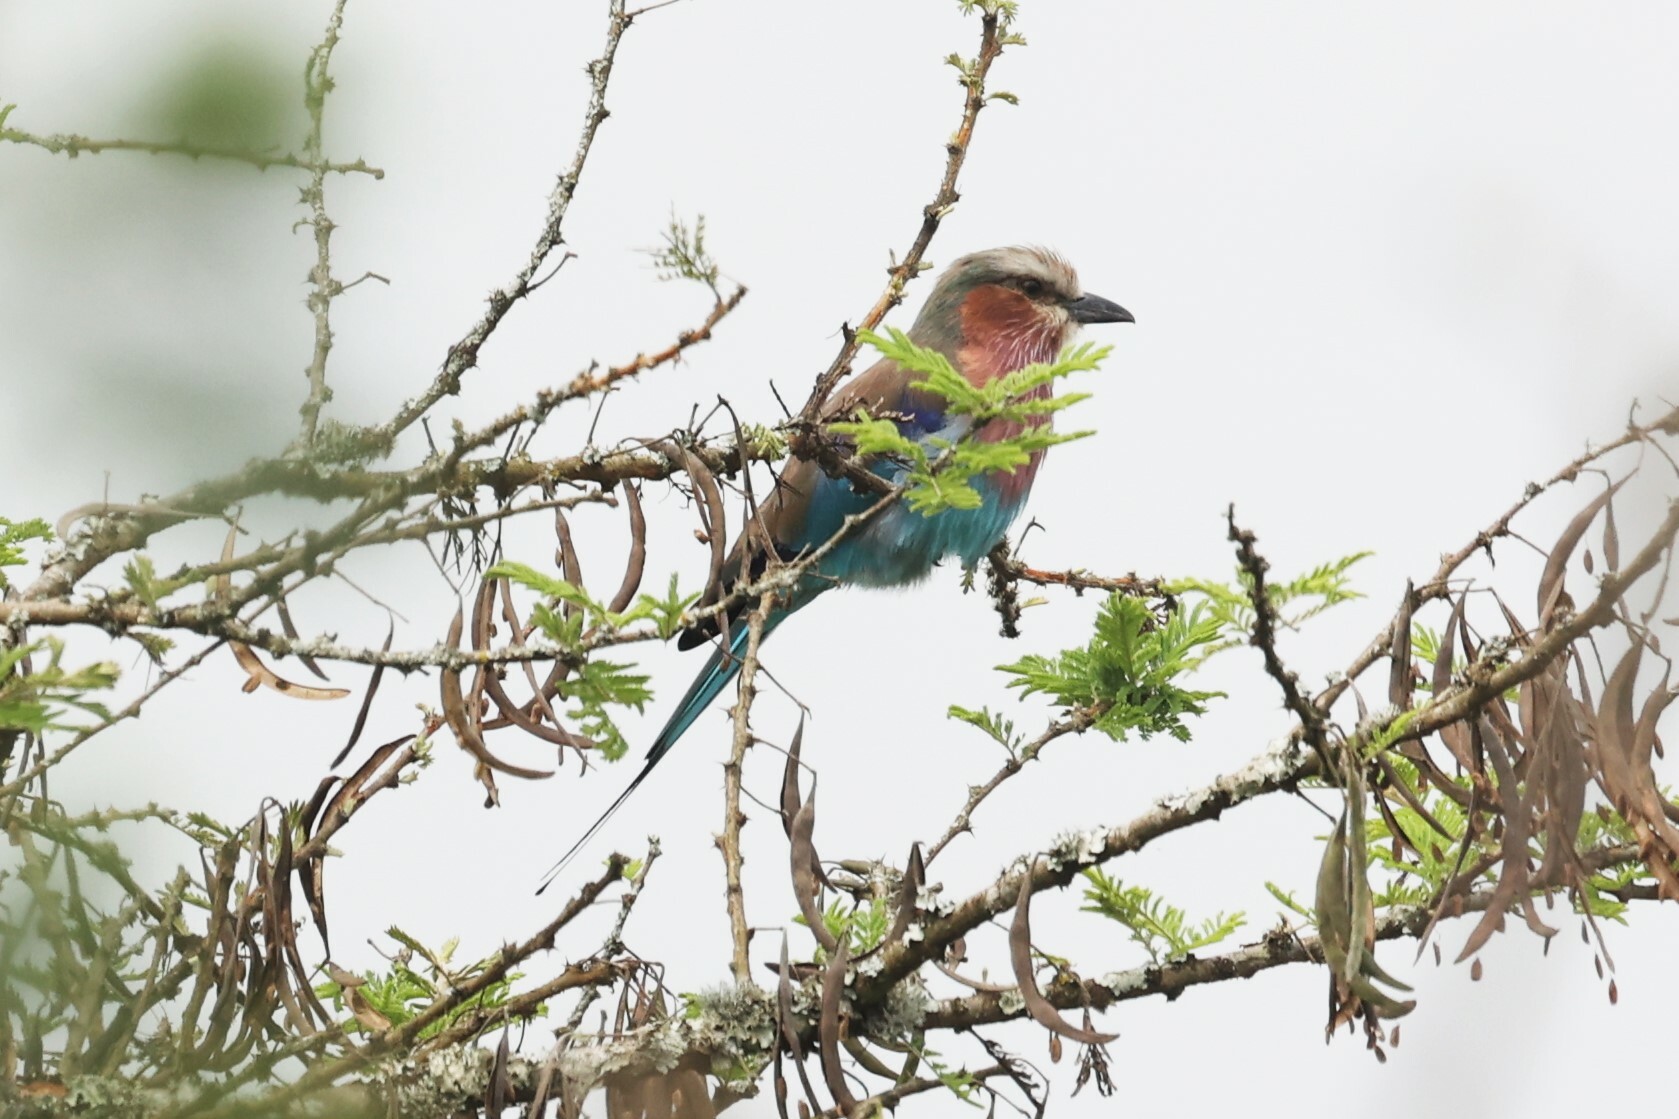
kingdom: Animalia
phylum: Chordata
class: Aves
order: Coraciiformes
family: Coraciidae
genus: Coracias
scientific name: Coracias caudatus
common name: Lilac-breasted roller
